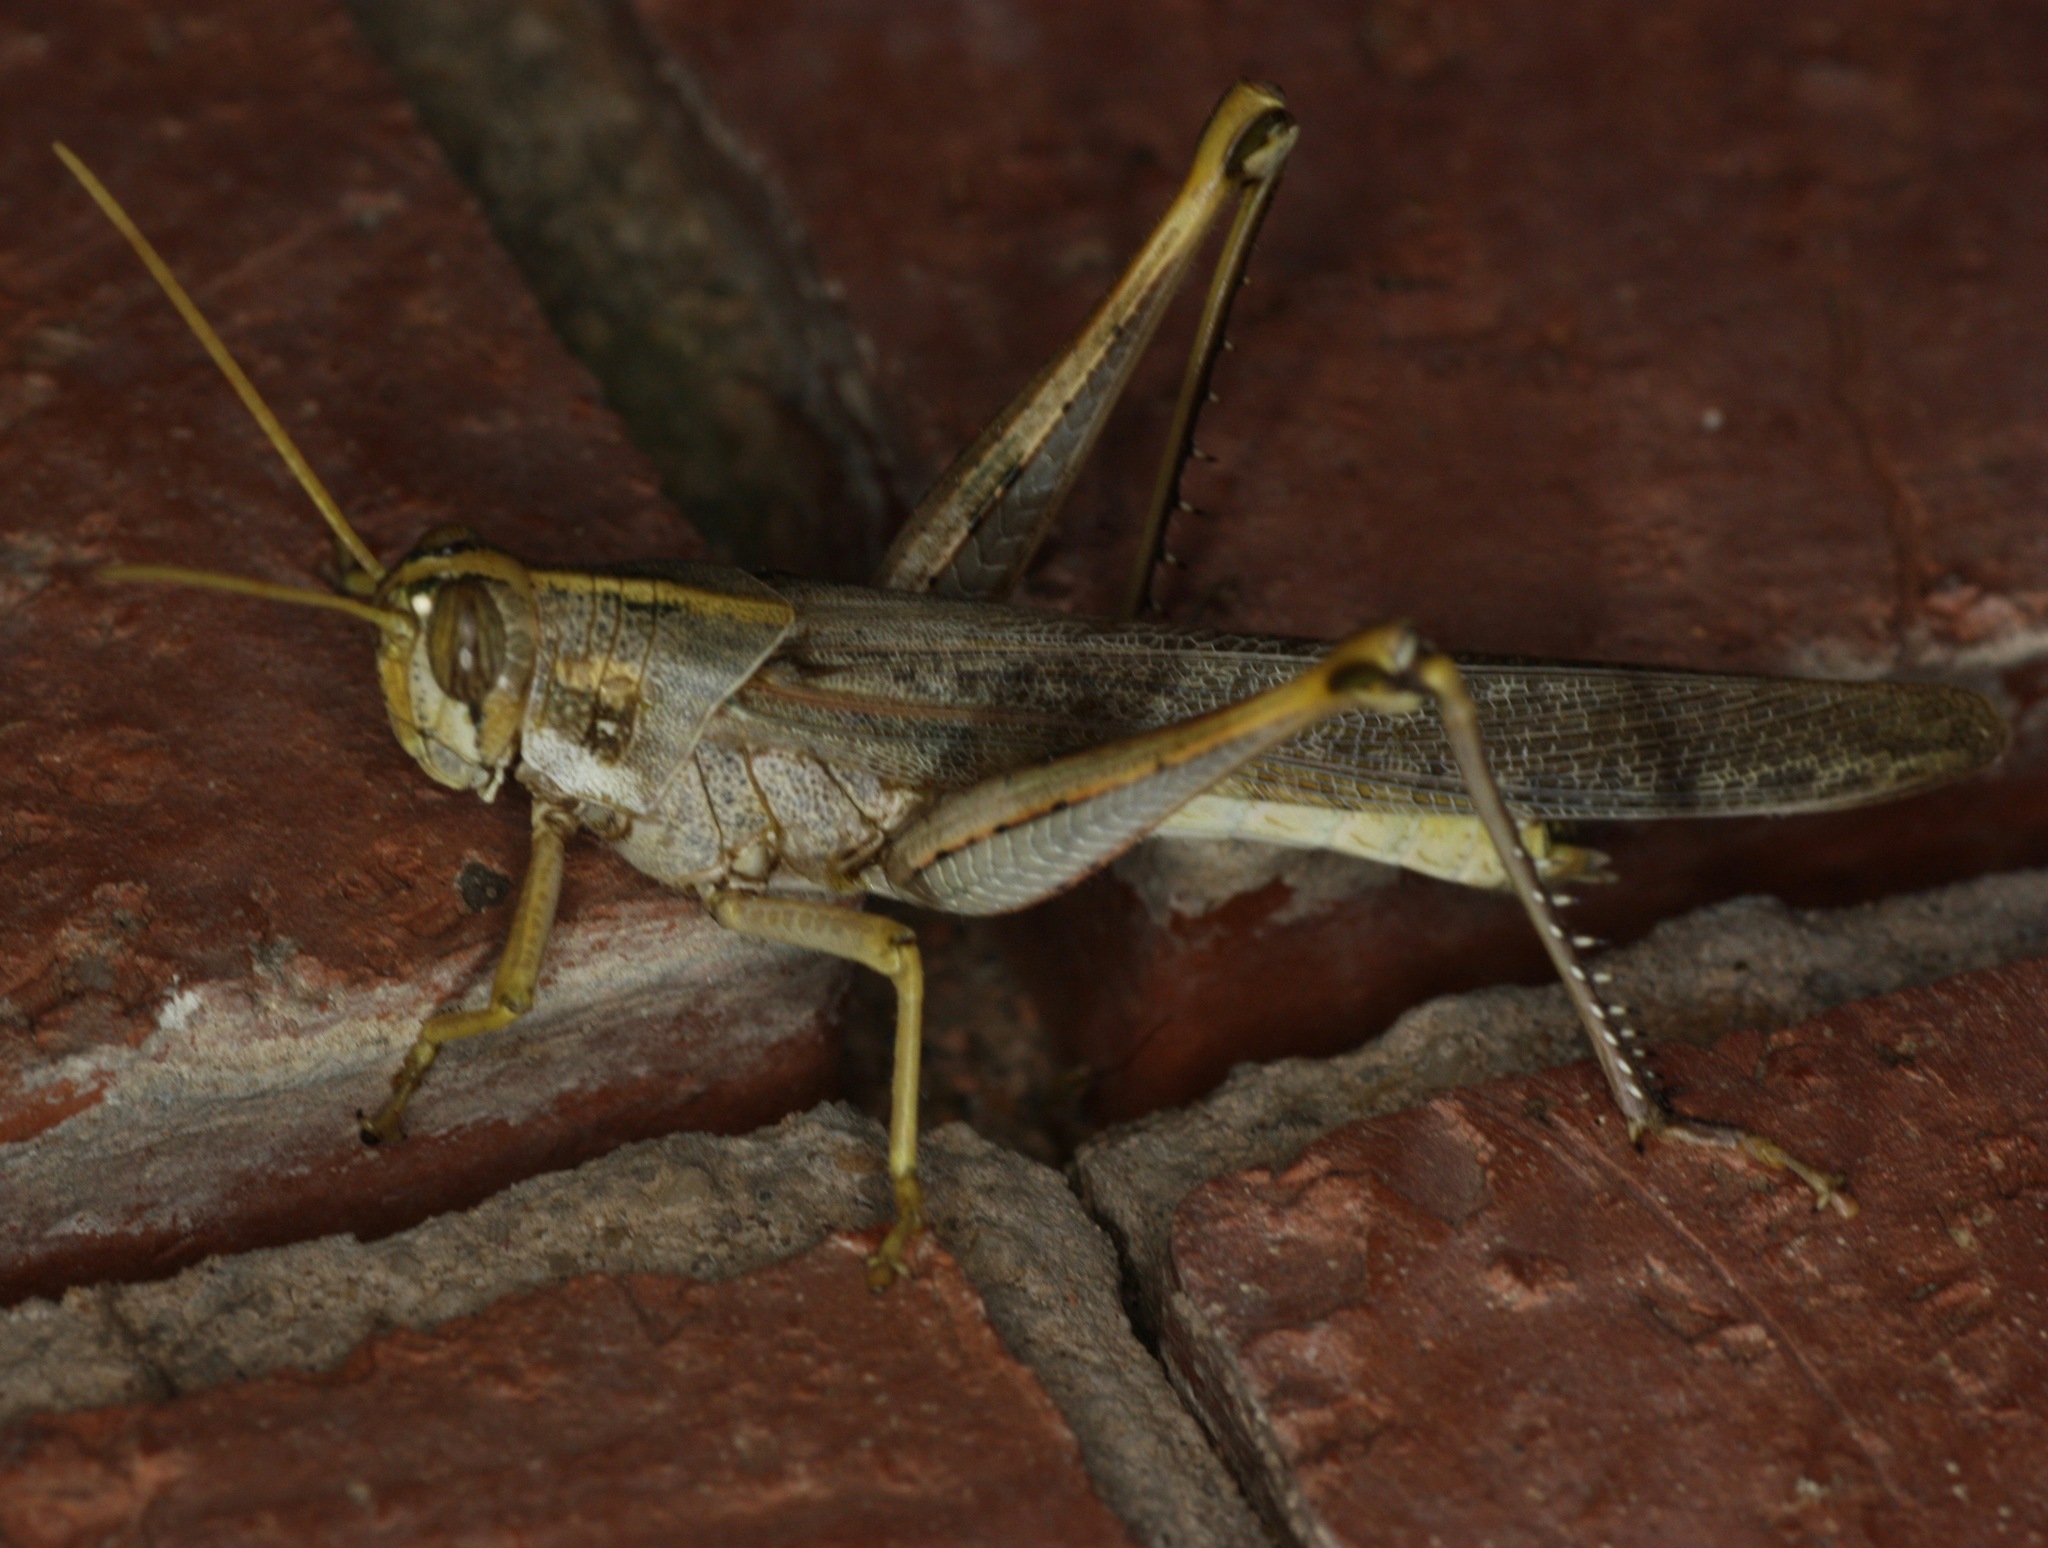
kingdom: Animalia
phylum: Arthropoda
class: Insecta
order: Orthoptera
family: Acrididae
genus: Schistocerca
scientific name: Schistocerca nitens
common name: Vagrant grasshopper
